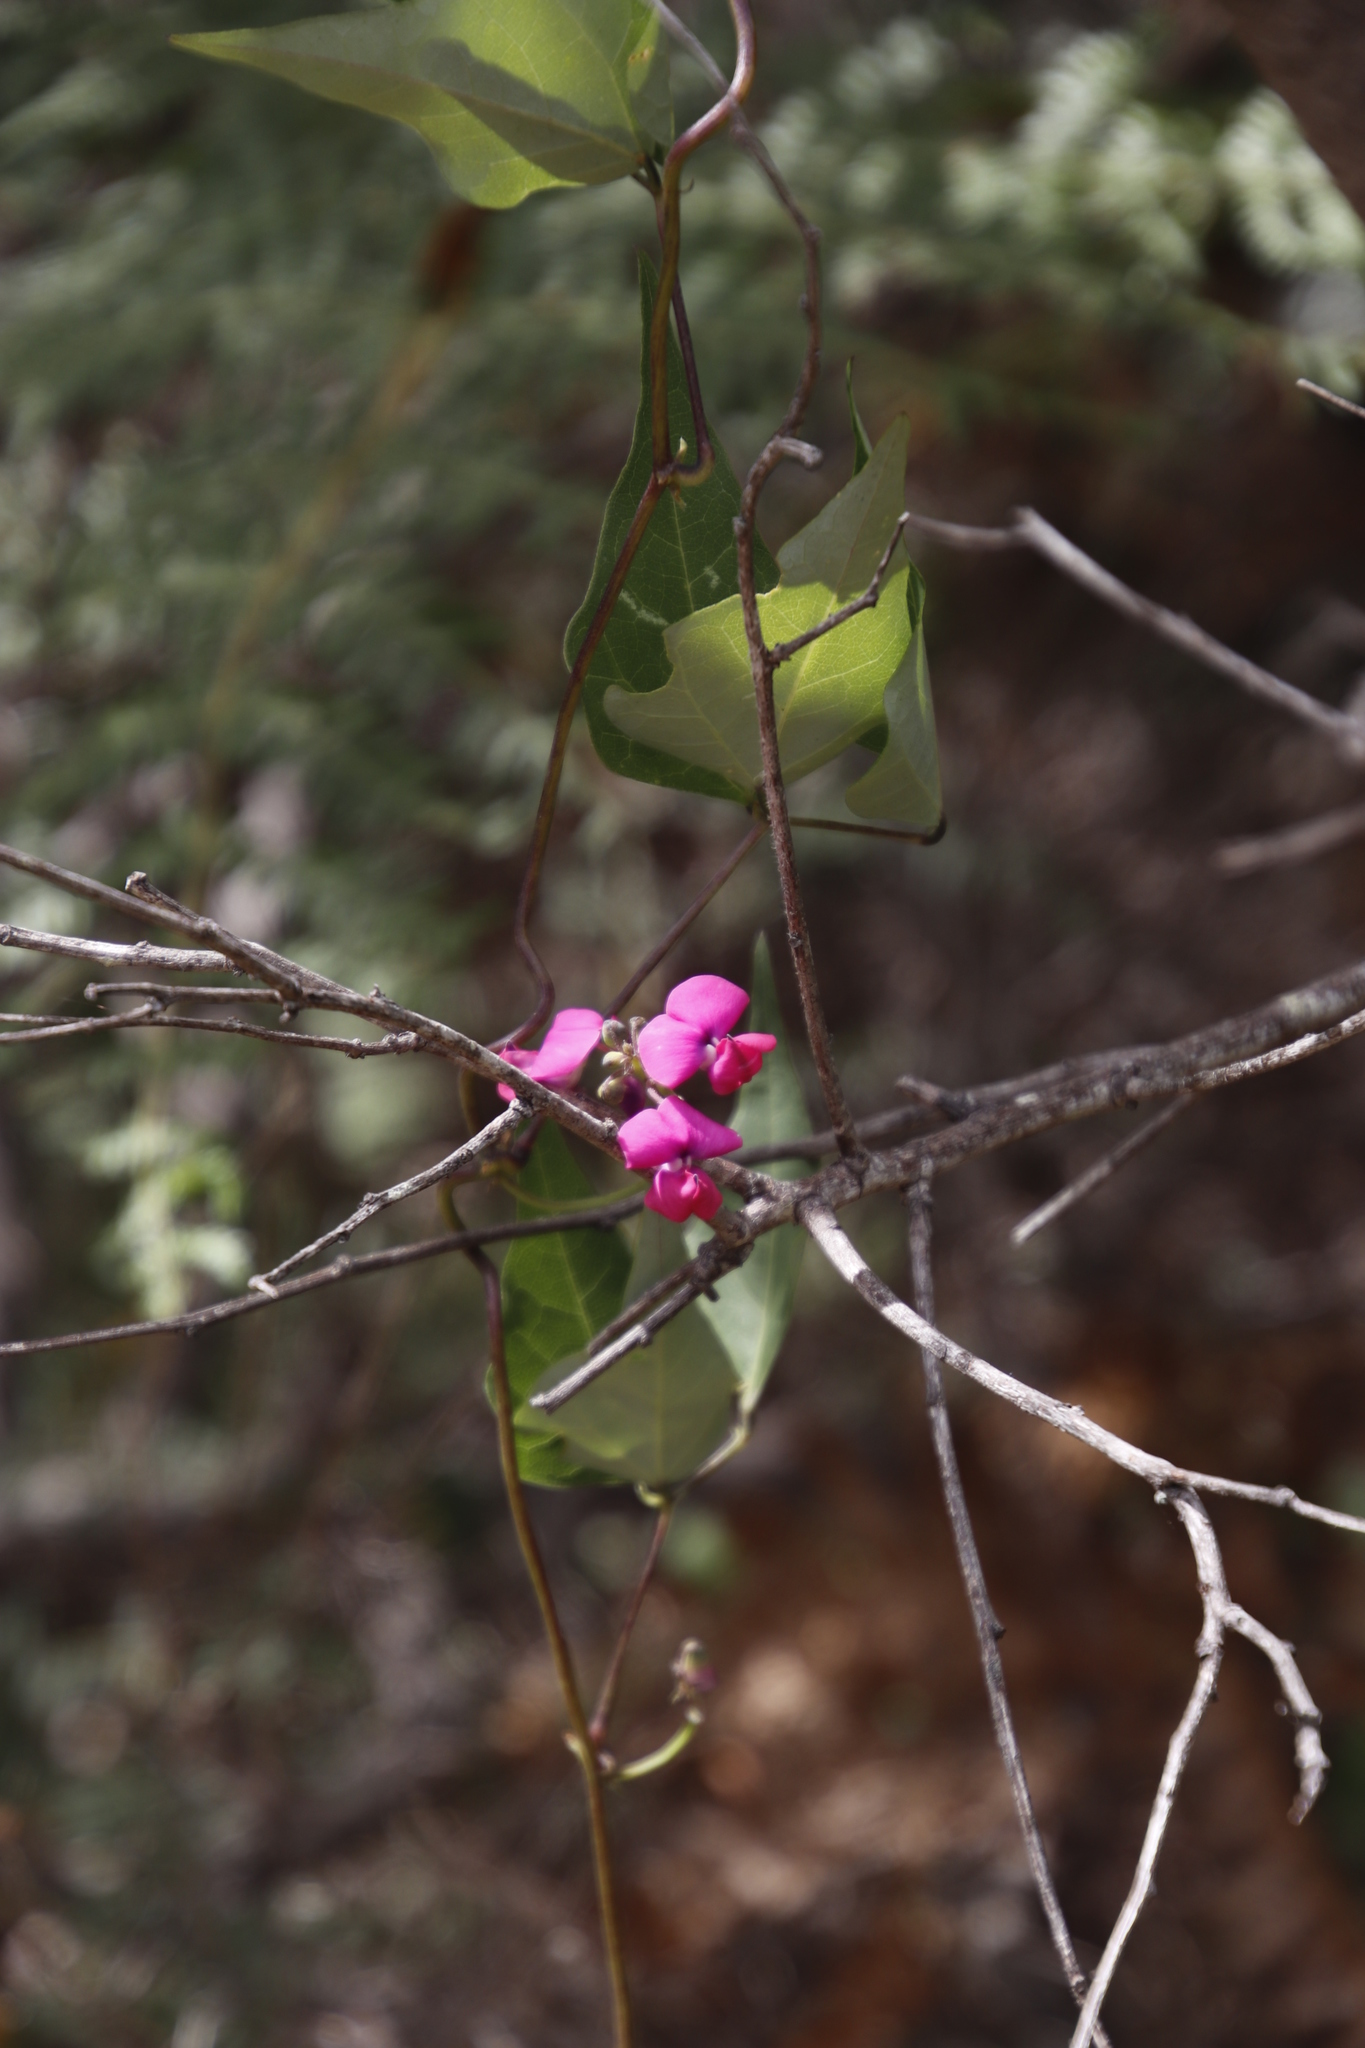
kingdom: Plantae
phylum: Tracheophyta
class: Magnoliopsida
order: Fabales
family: Fabaceae
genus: Dipogon
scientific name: Dipogon lignosus
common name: Okie bean
